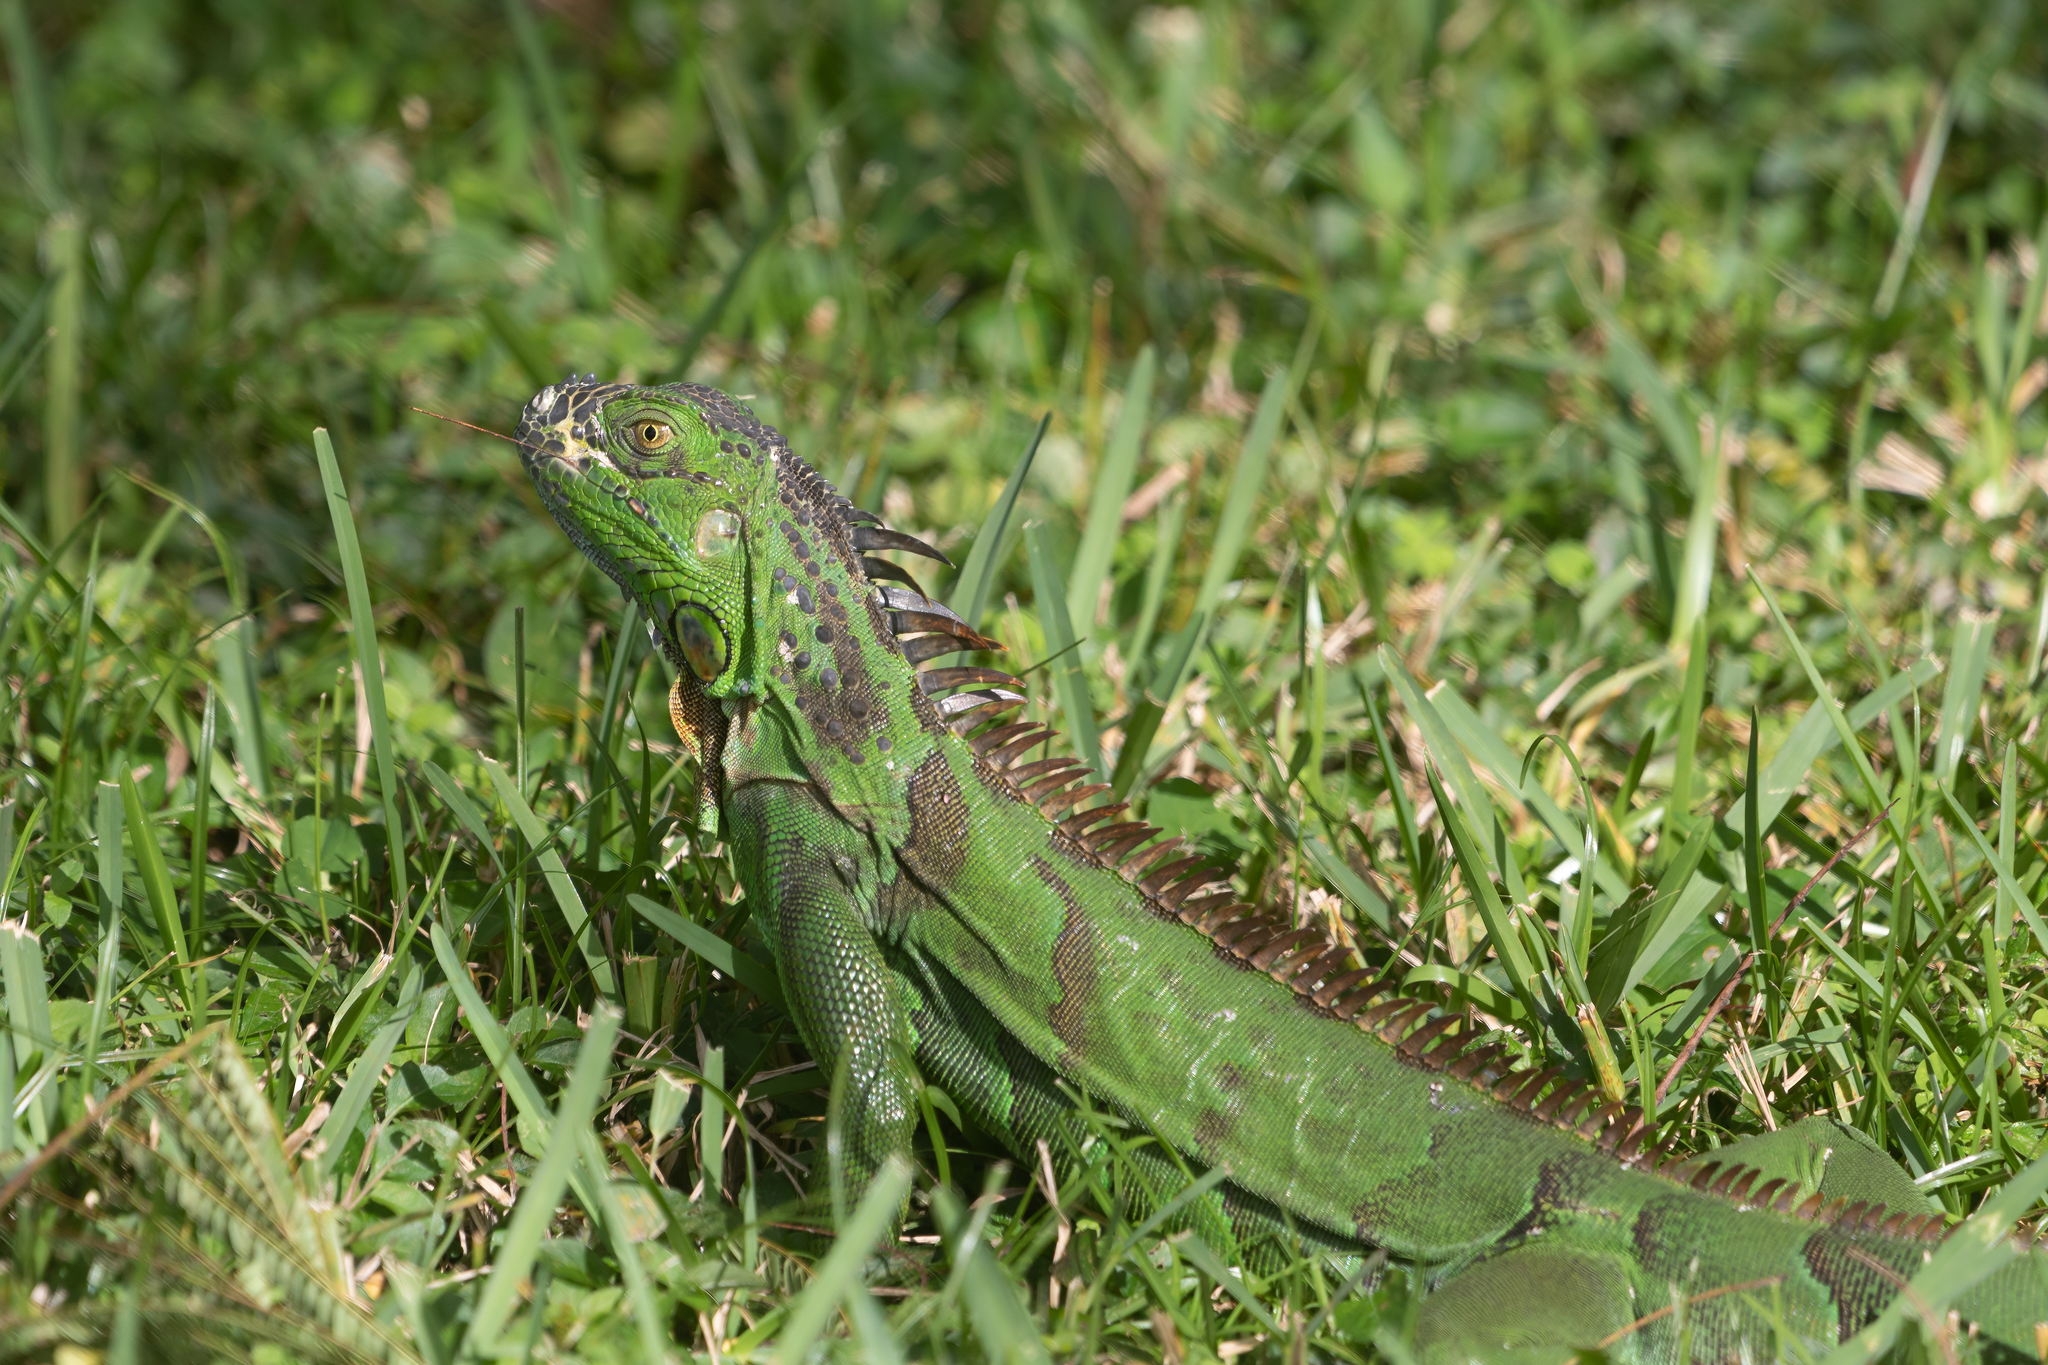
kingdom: Animalia
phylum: Chordata
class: Squamata
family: Iguanidae
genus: Iguana
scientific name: Iguana iguana
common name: Green iguana
